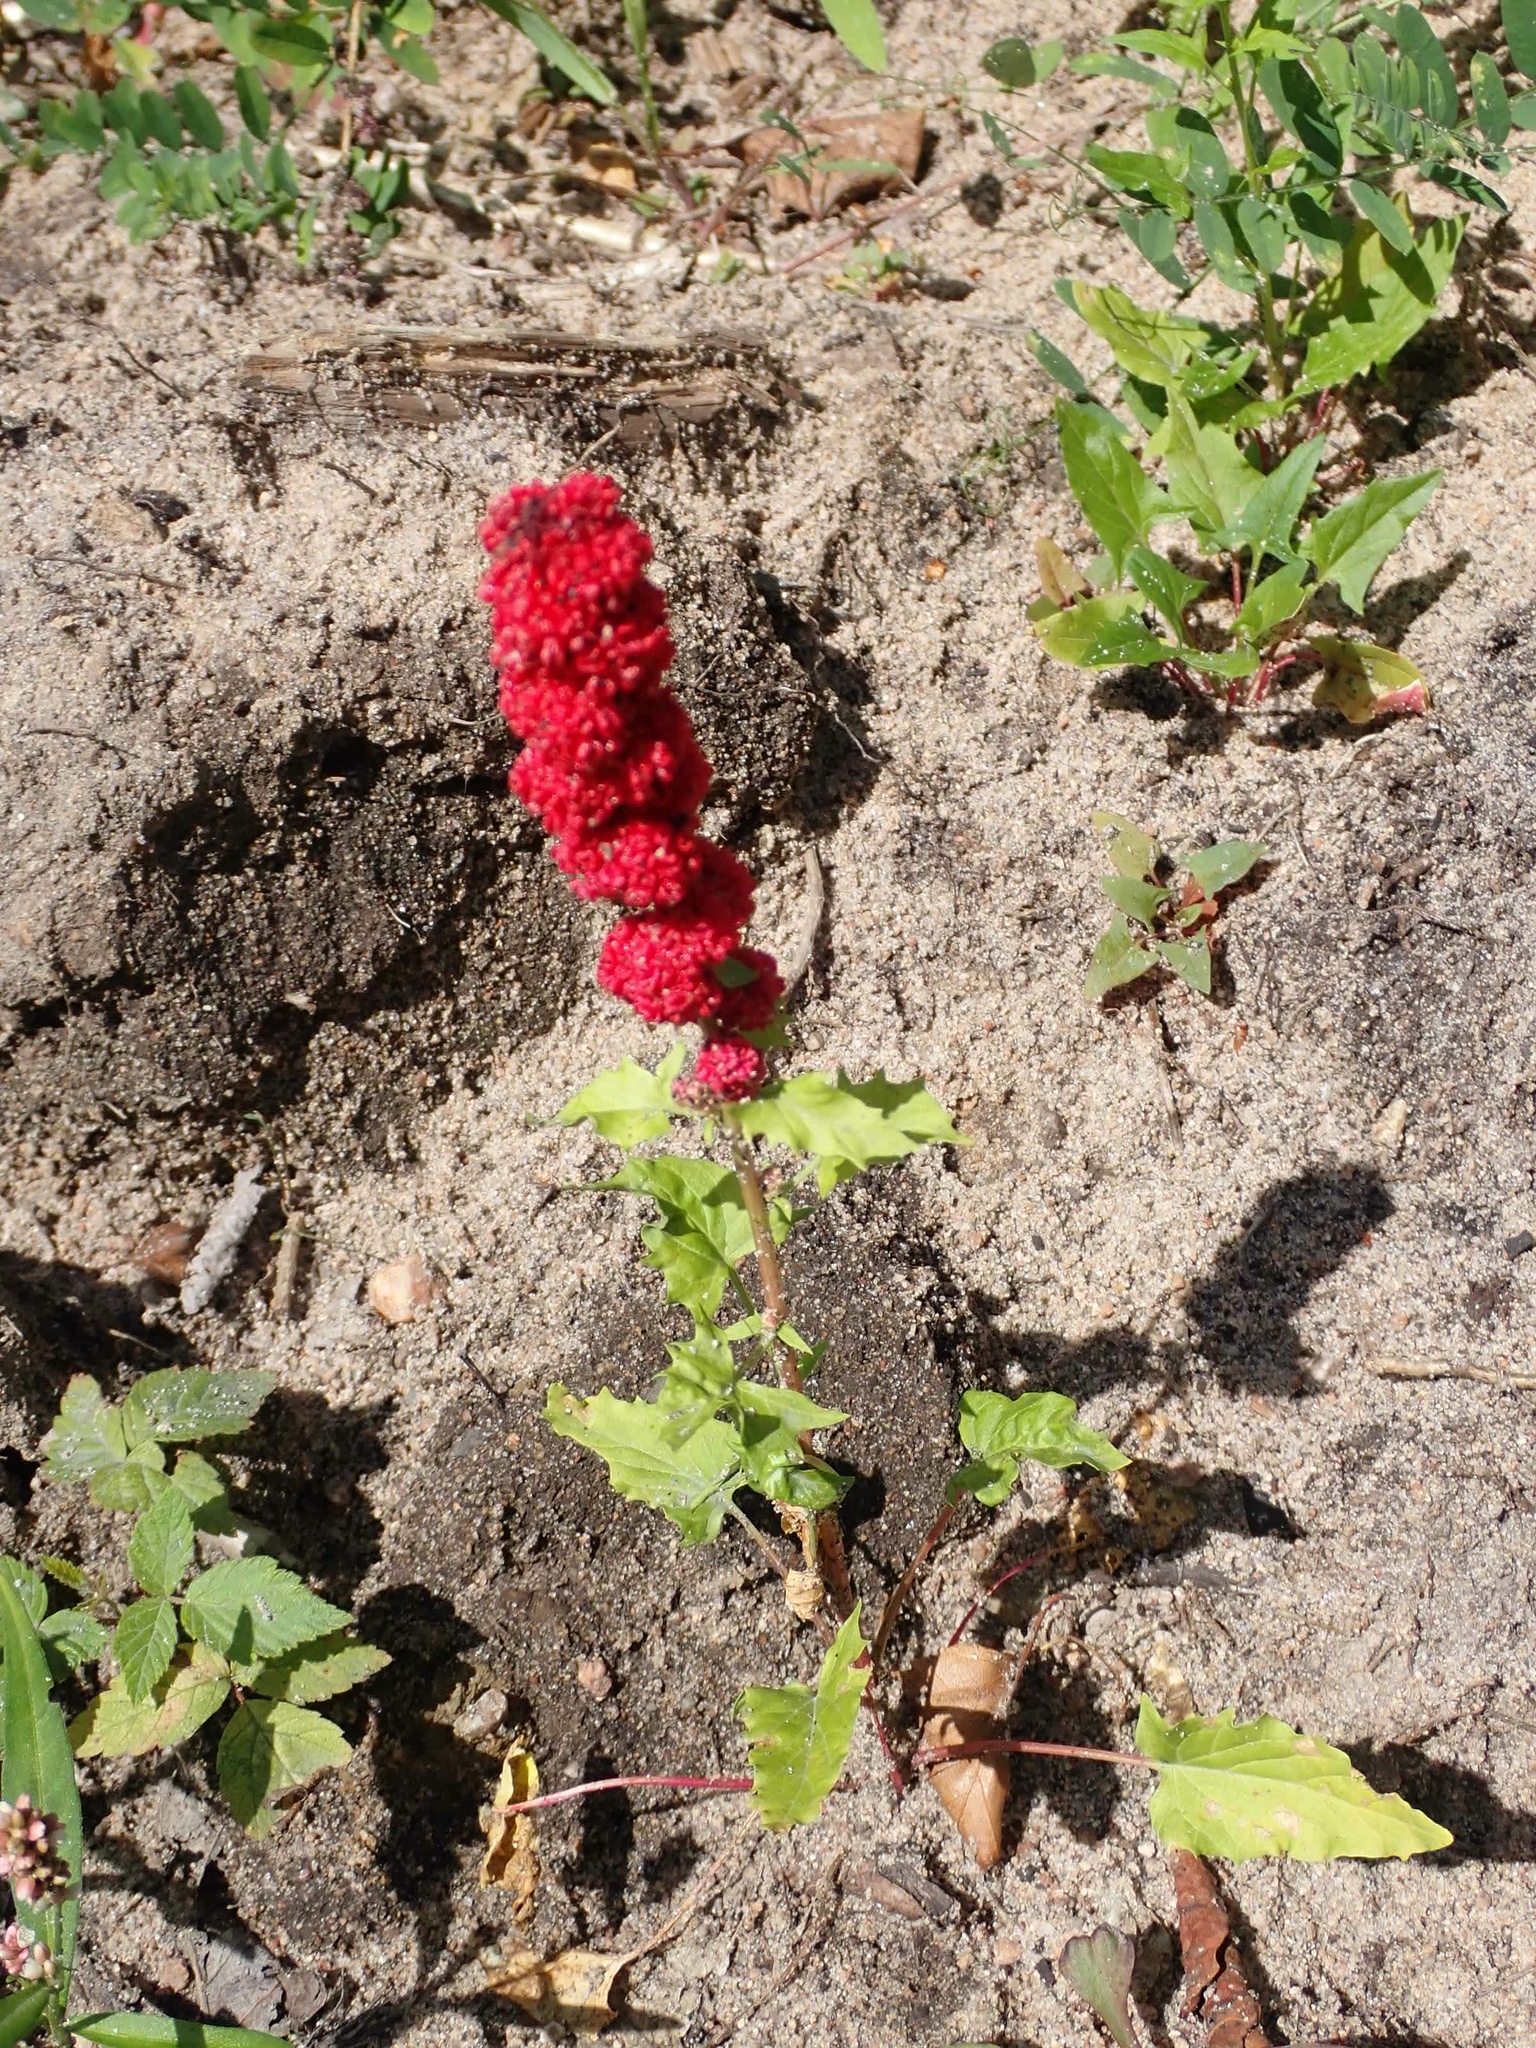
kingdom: Plantae
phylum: Tracheophyta
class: Magnoliopsida
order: Caryophyllales
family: Amaranthaceae
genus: Blitum
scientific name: Blitum capitatum
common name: Strawberry-blight
